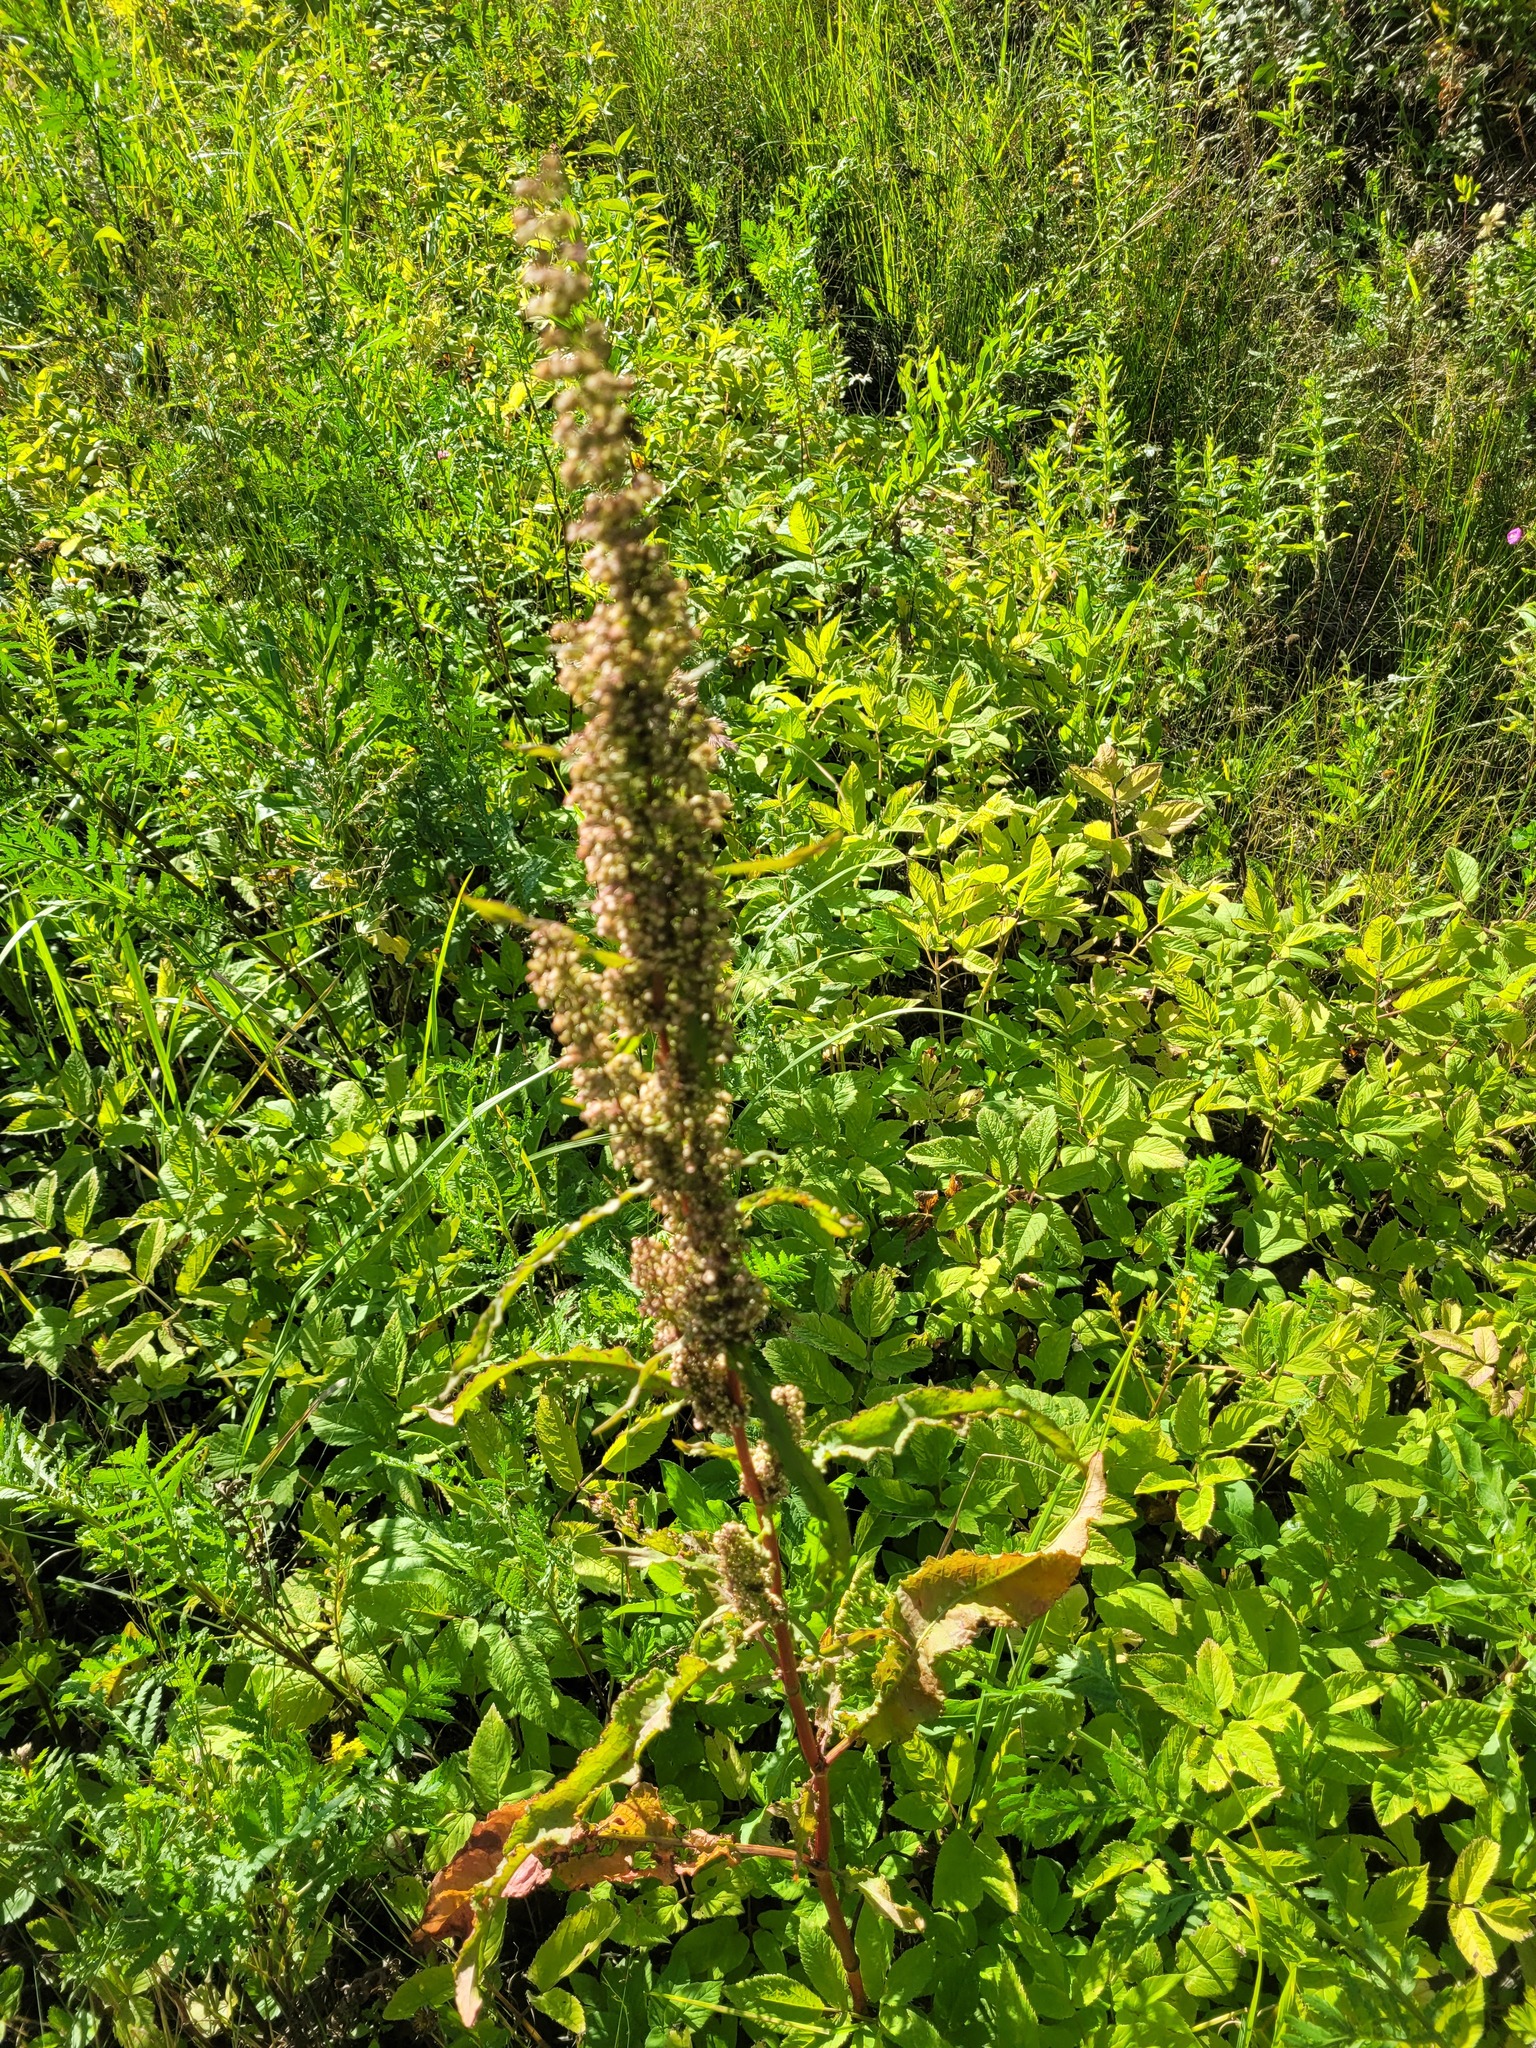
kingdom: Plantae
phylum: Tracheophyta
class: Magnoliopsida
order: Caryophyllales
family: Polygonaceae
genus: Rumex
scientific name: Rumex crispus
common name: Curled dock
